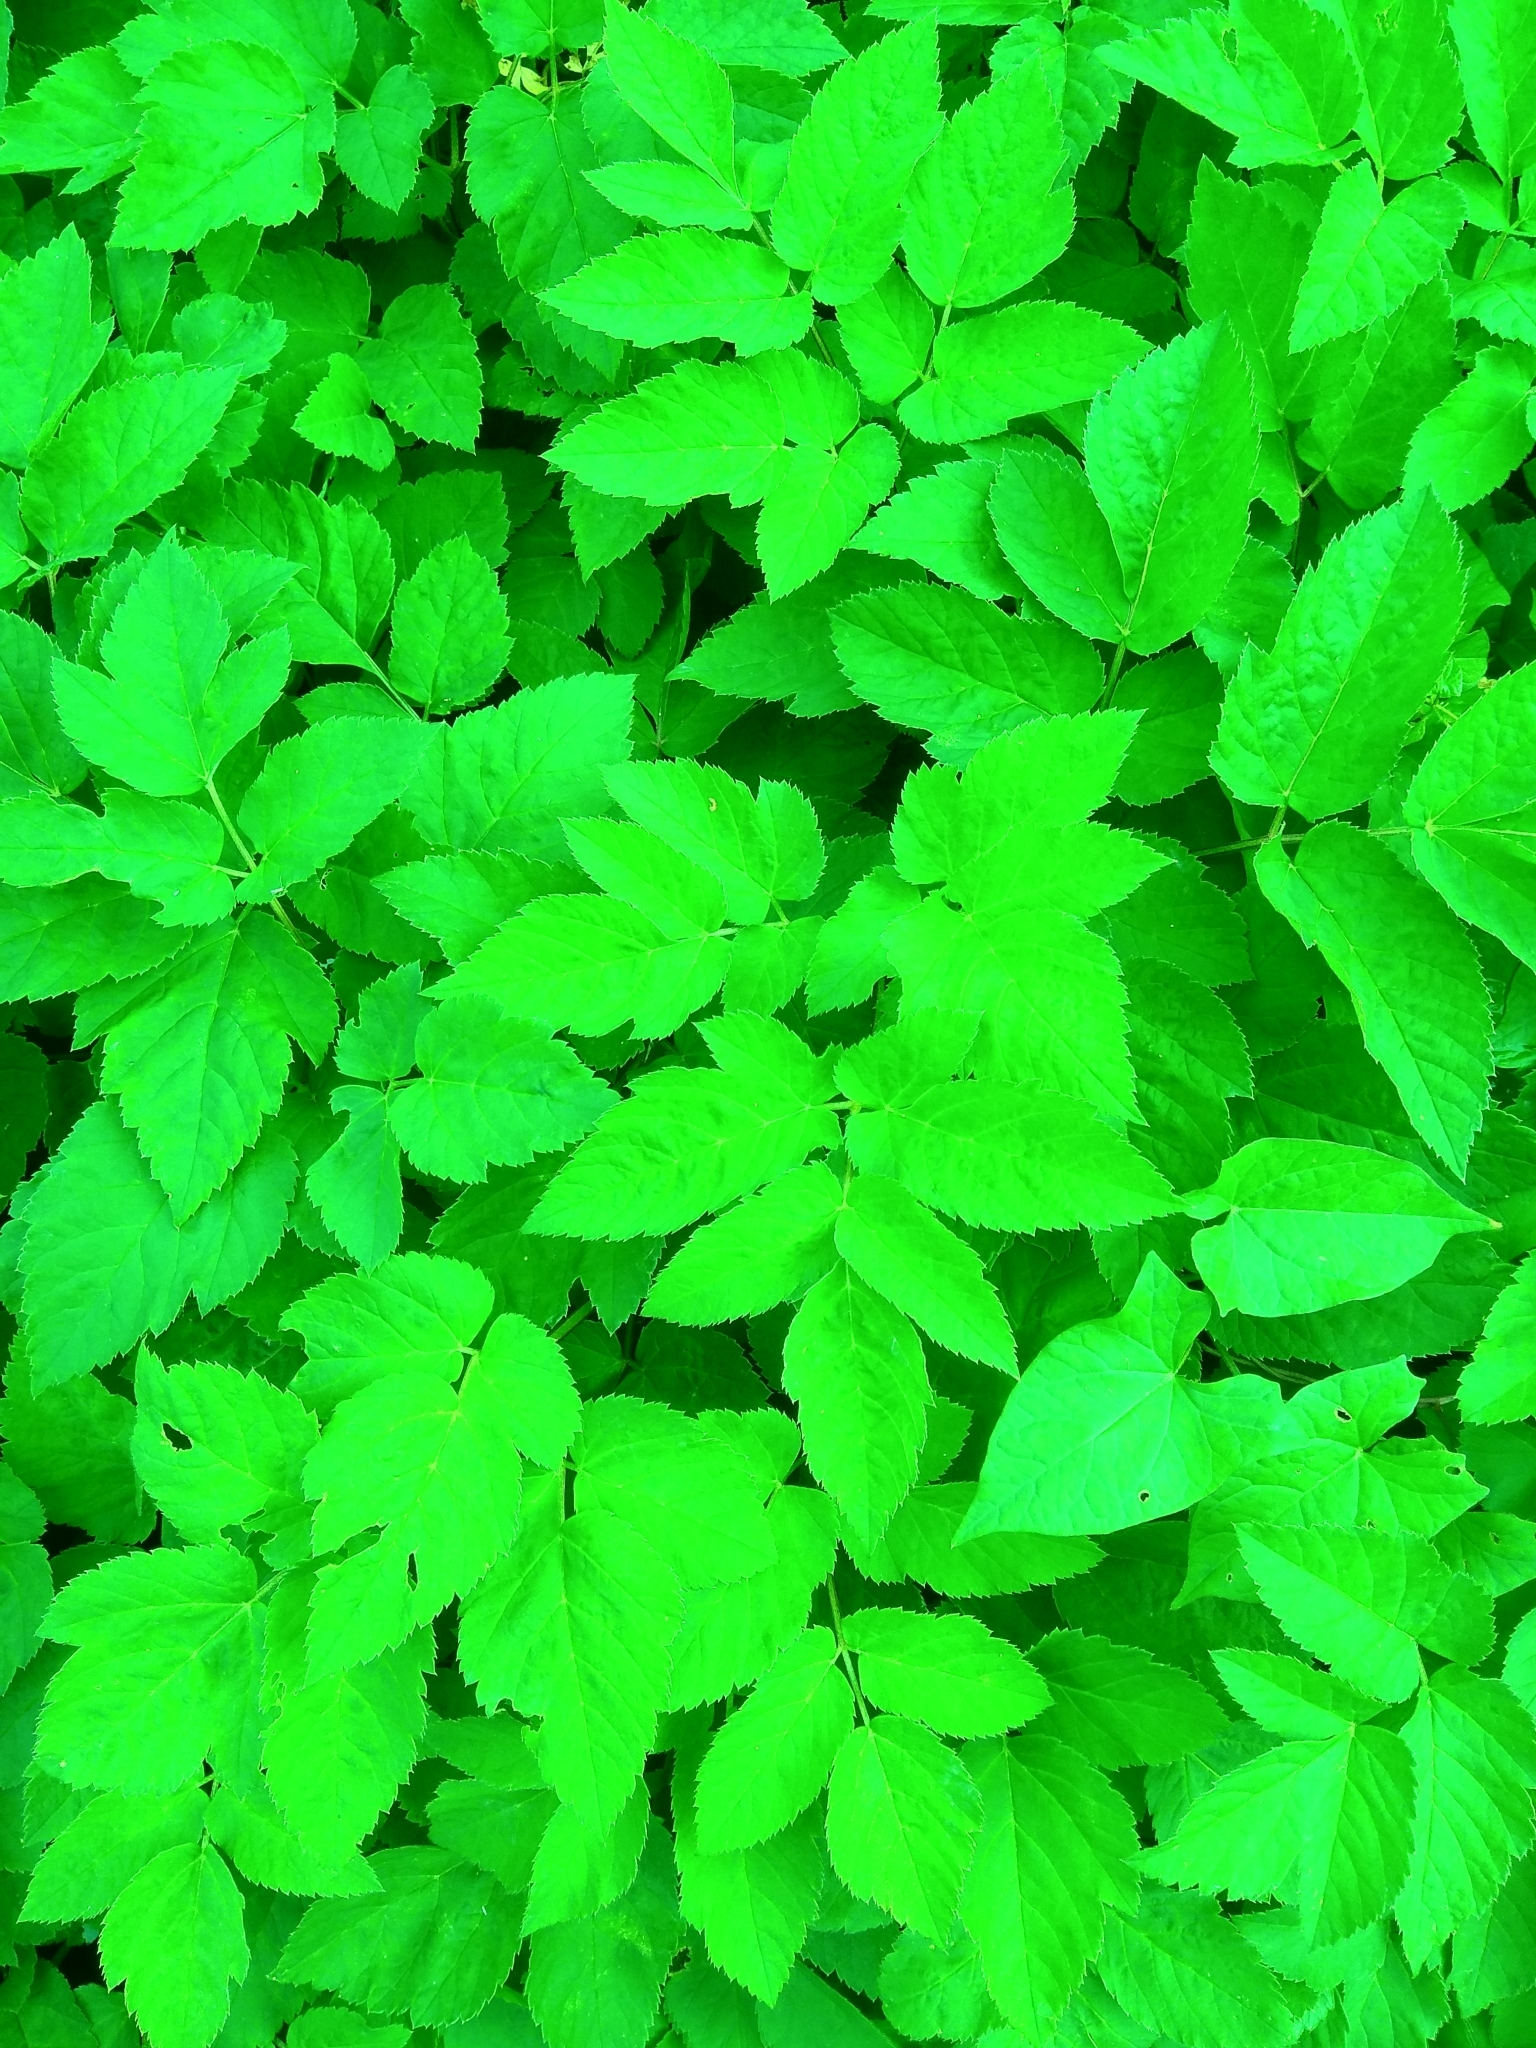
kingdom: Plantae
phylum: Tracheophyta
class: Magnoliopsida
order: Apiales
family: Apiaceae
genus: Aegopodium
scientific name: Aegopodium podagraria
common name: Ground-elder
